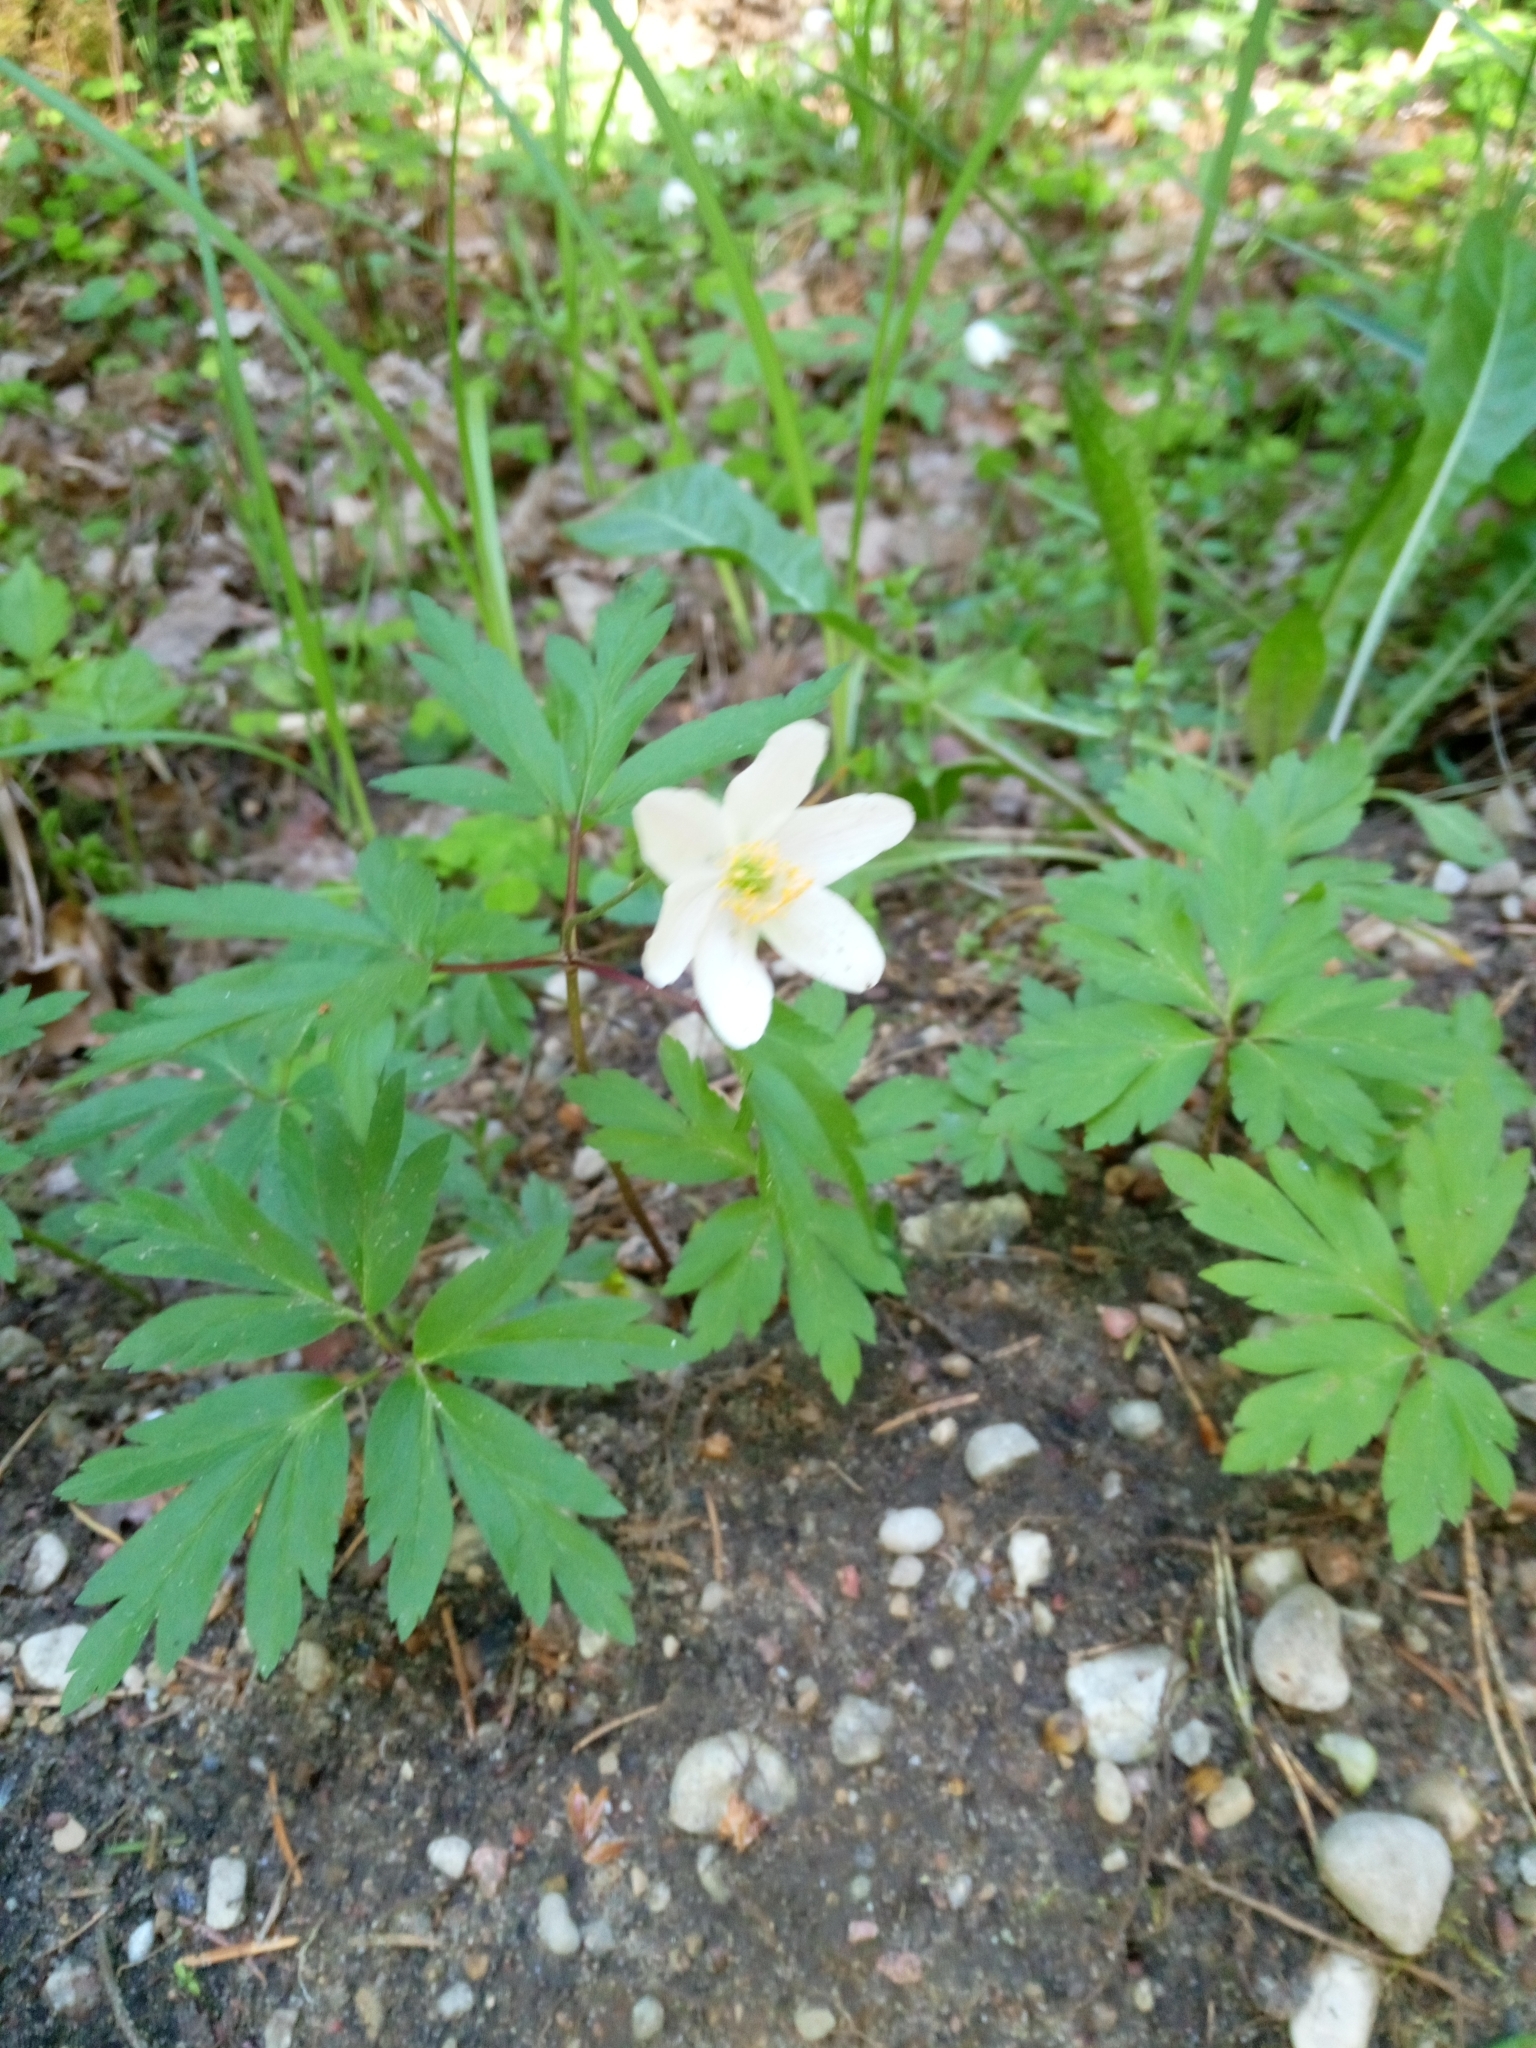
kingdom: Plantae
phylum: Tracheophyta
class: Magnoliopsida
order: Ranunculales
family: Ranunculaceae
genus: Anemone
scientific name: Anemone nemorosa
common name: Wood anemone
